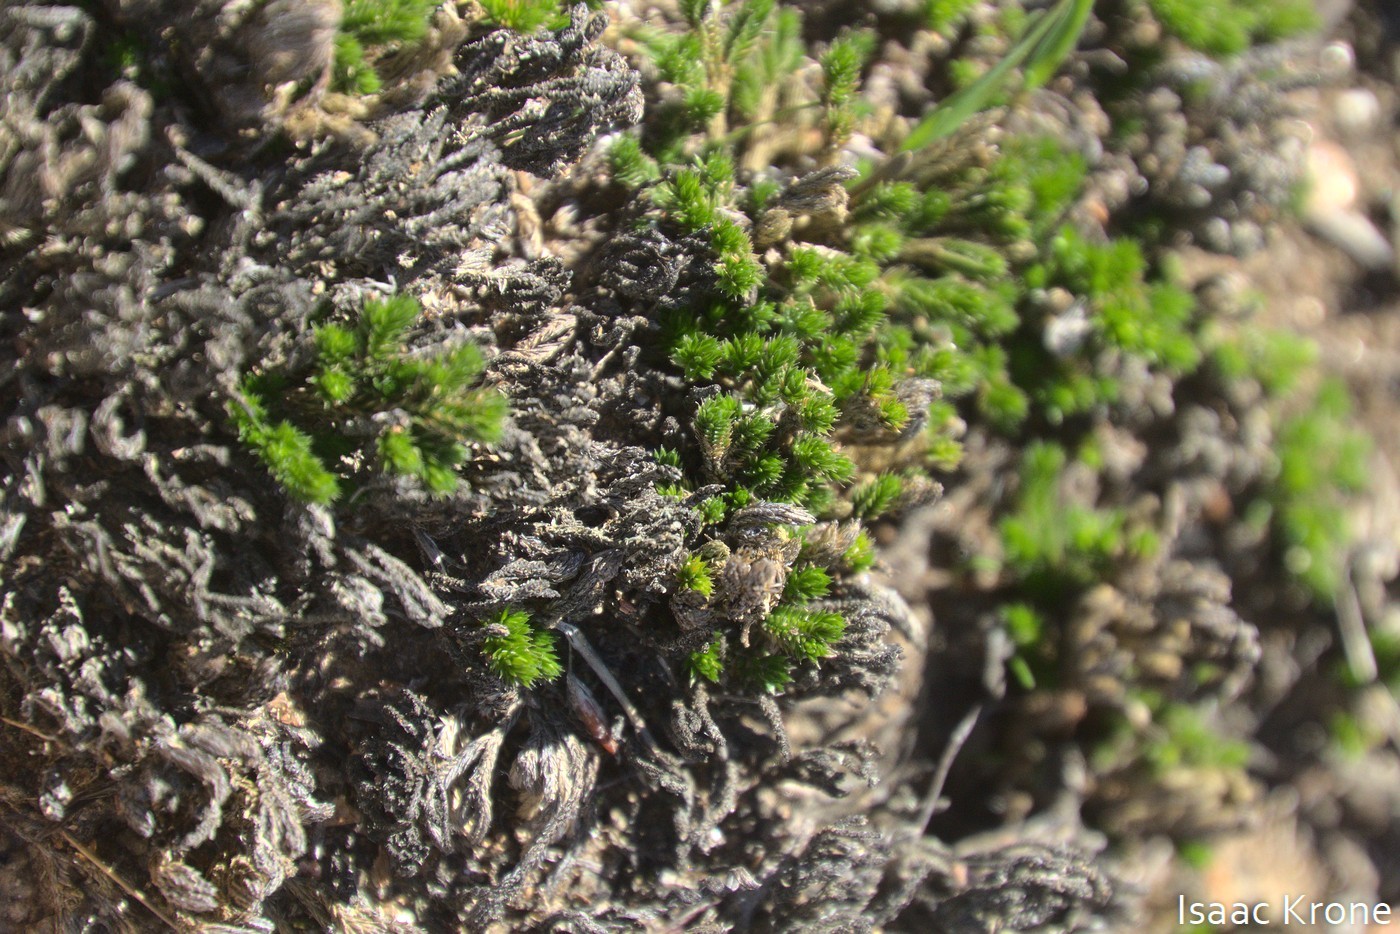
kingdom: Plantae
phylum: Tracheophyta
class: Lycopodiopsida
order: Selaginellales
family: Selaginellaceae
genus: Selaginella
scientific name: Selaginella bigelovii
